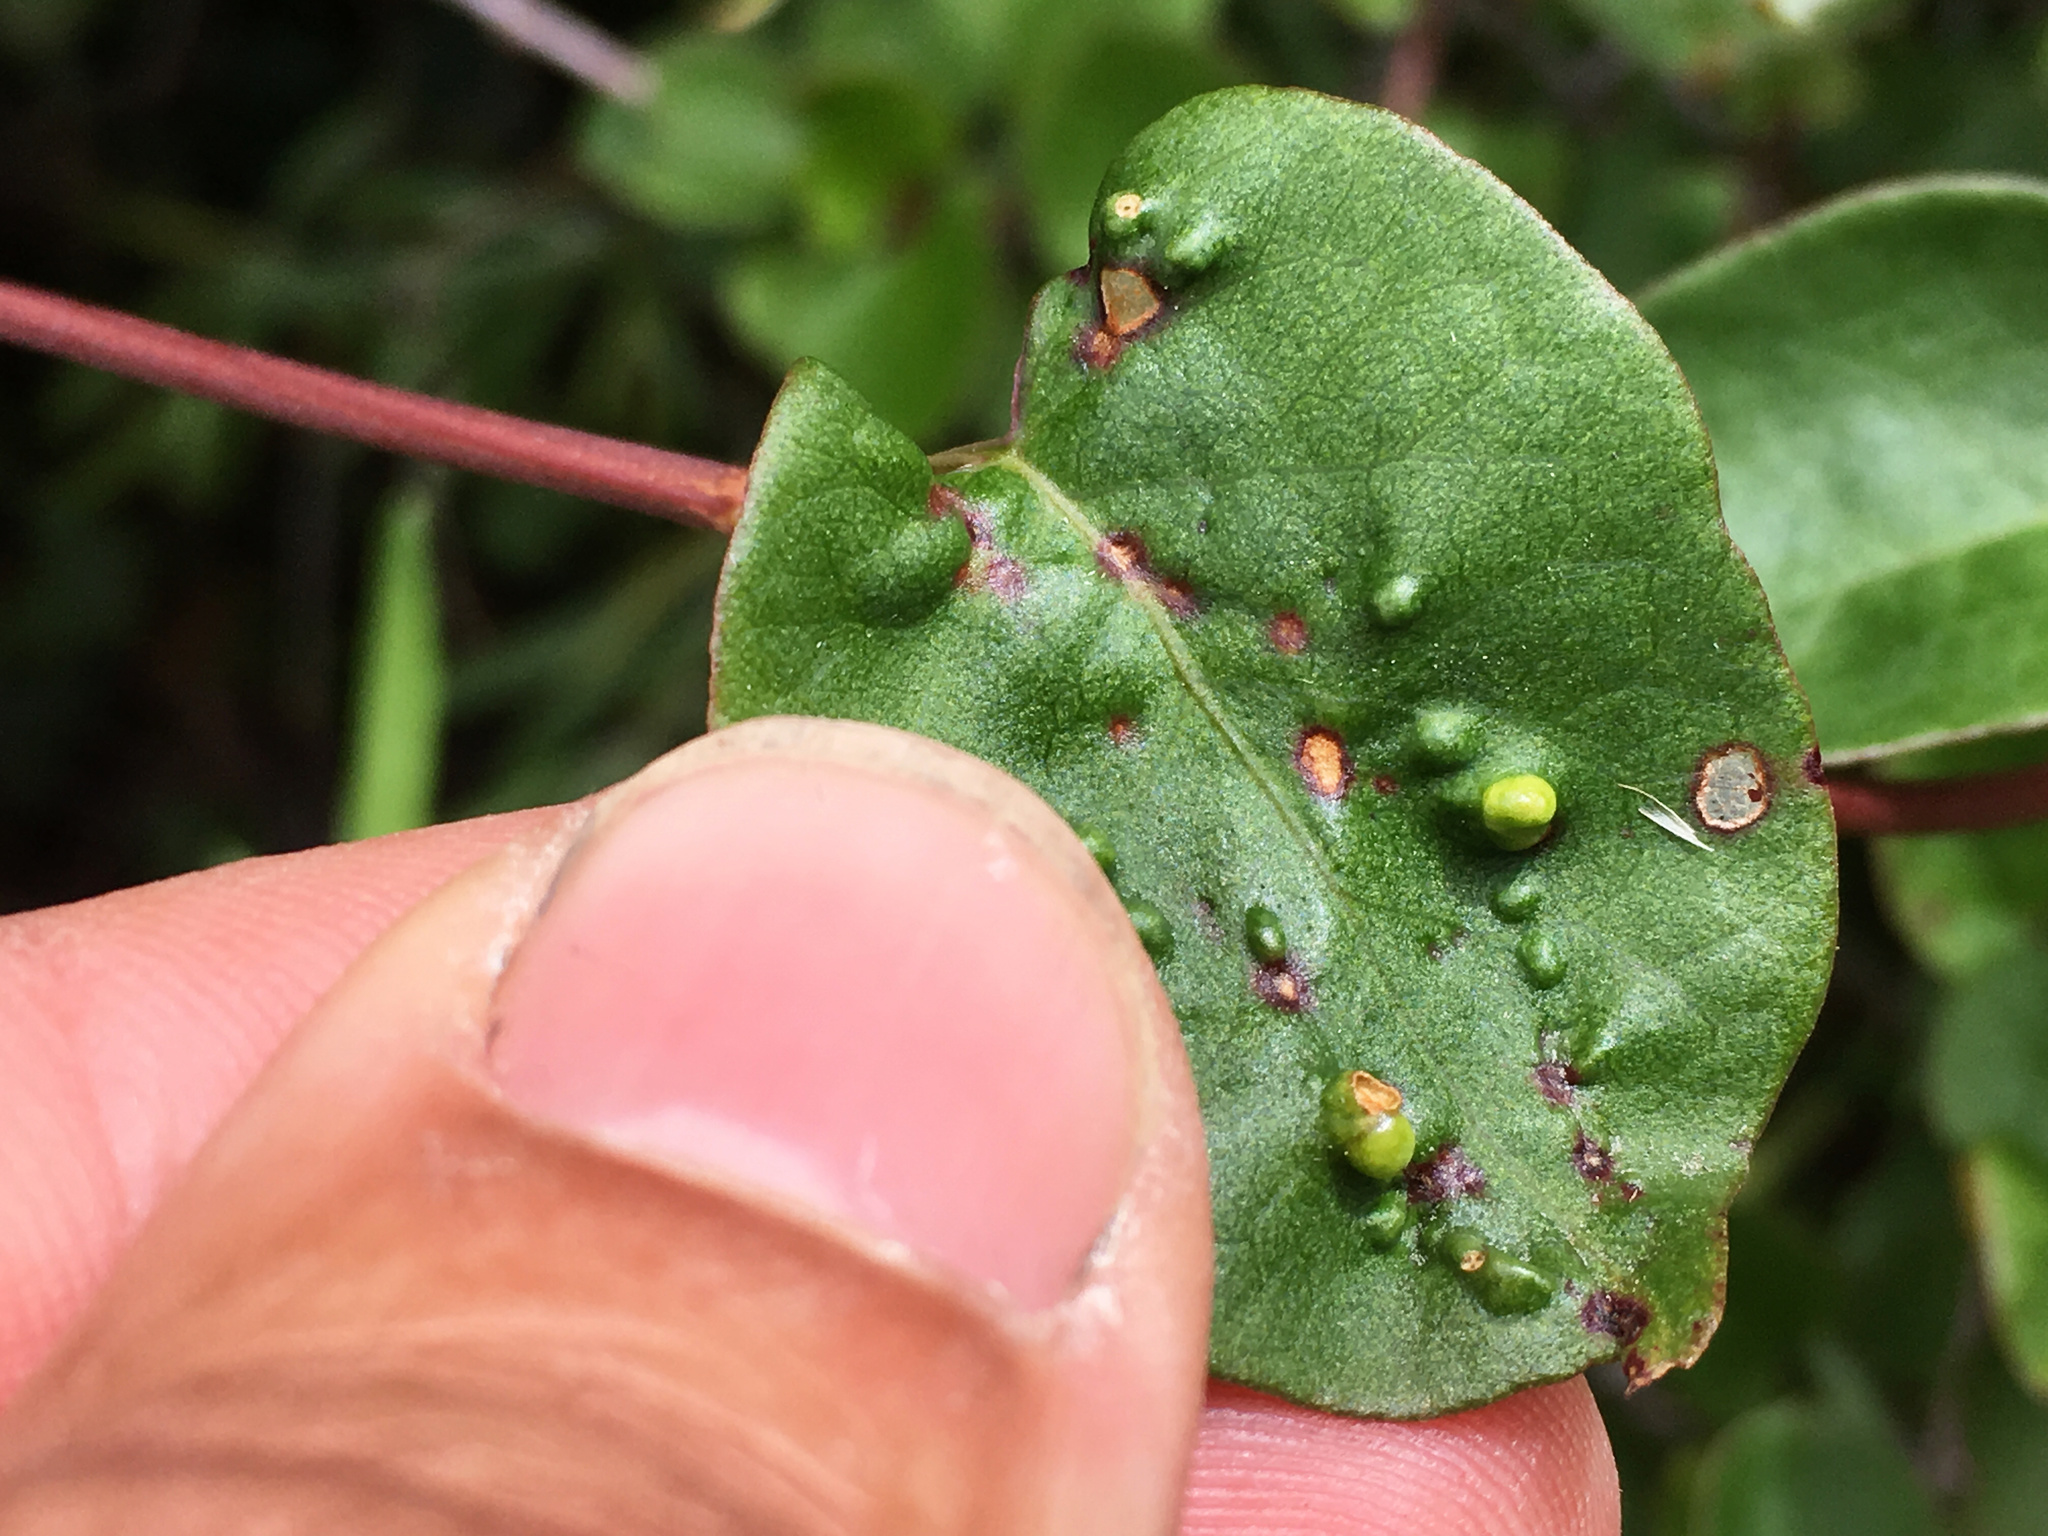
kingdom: Animalia
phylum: Arthropoda
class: Arachnida
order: Trombidiformes
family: Eriophyidae
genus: Aceria
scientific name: Aceria lamii
